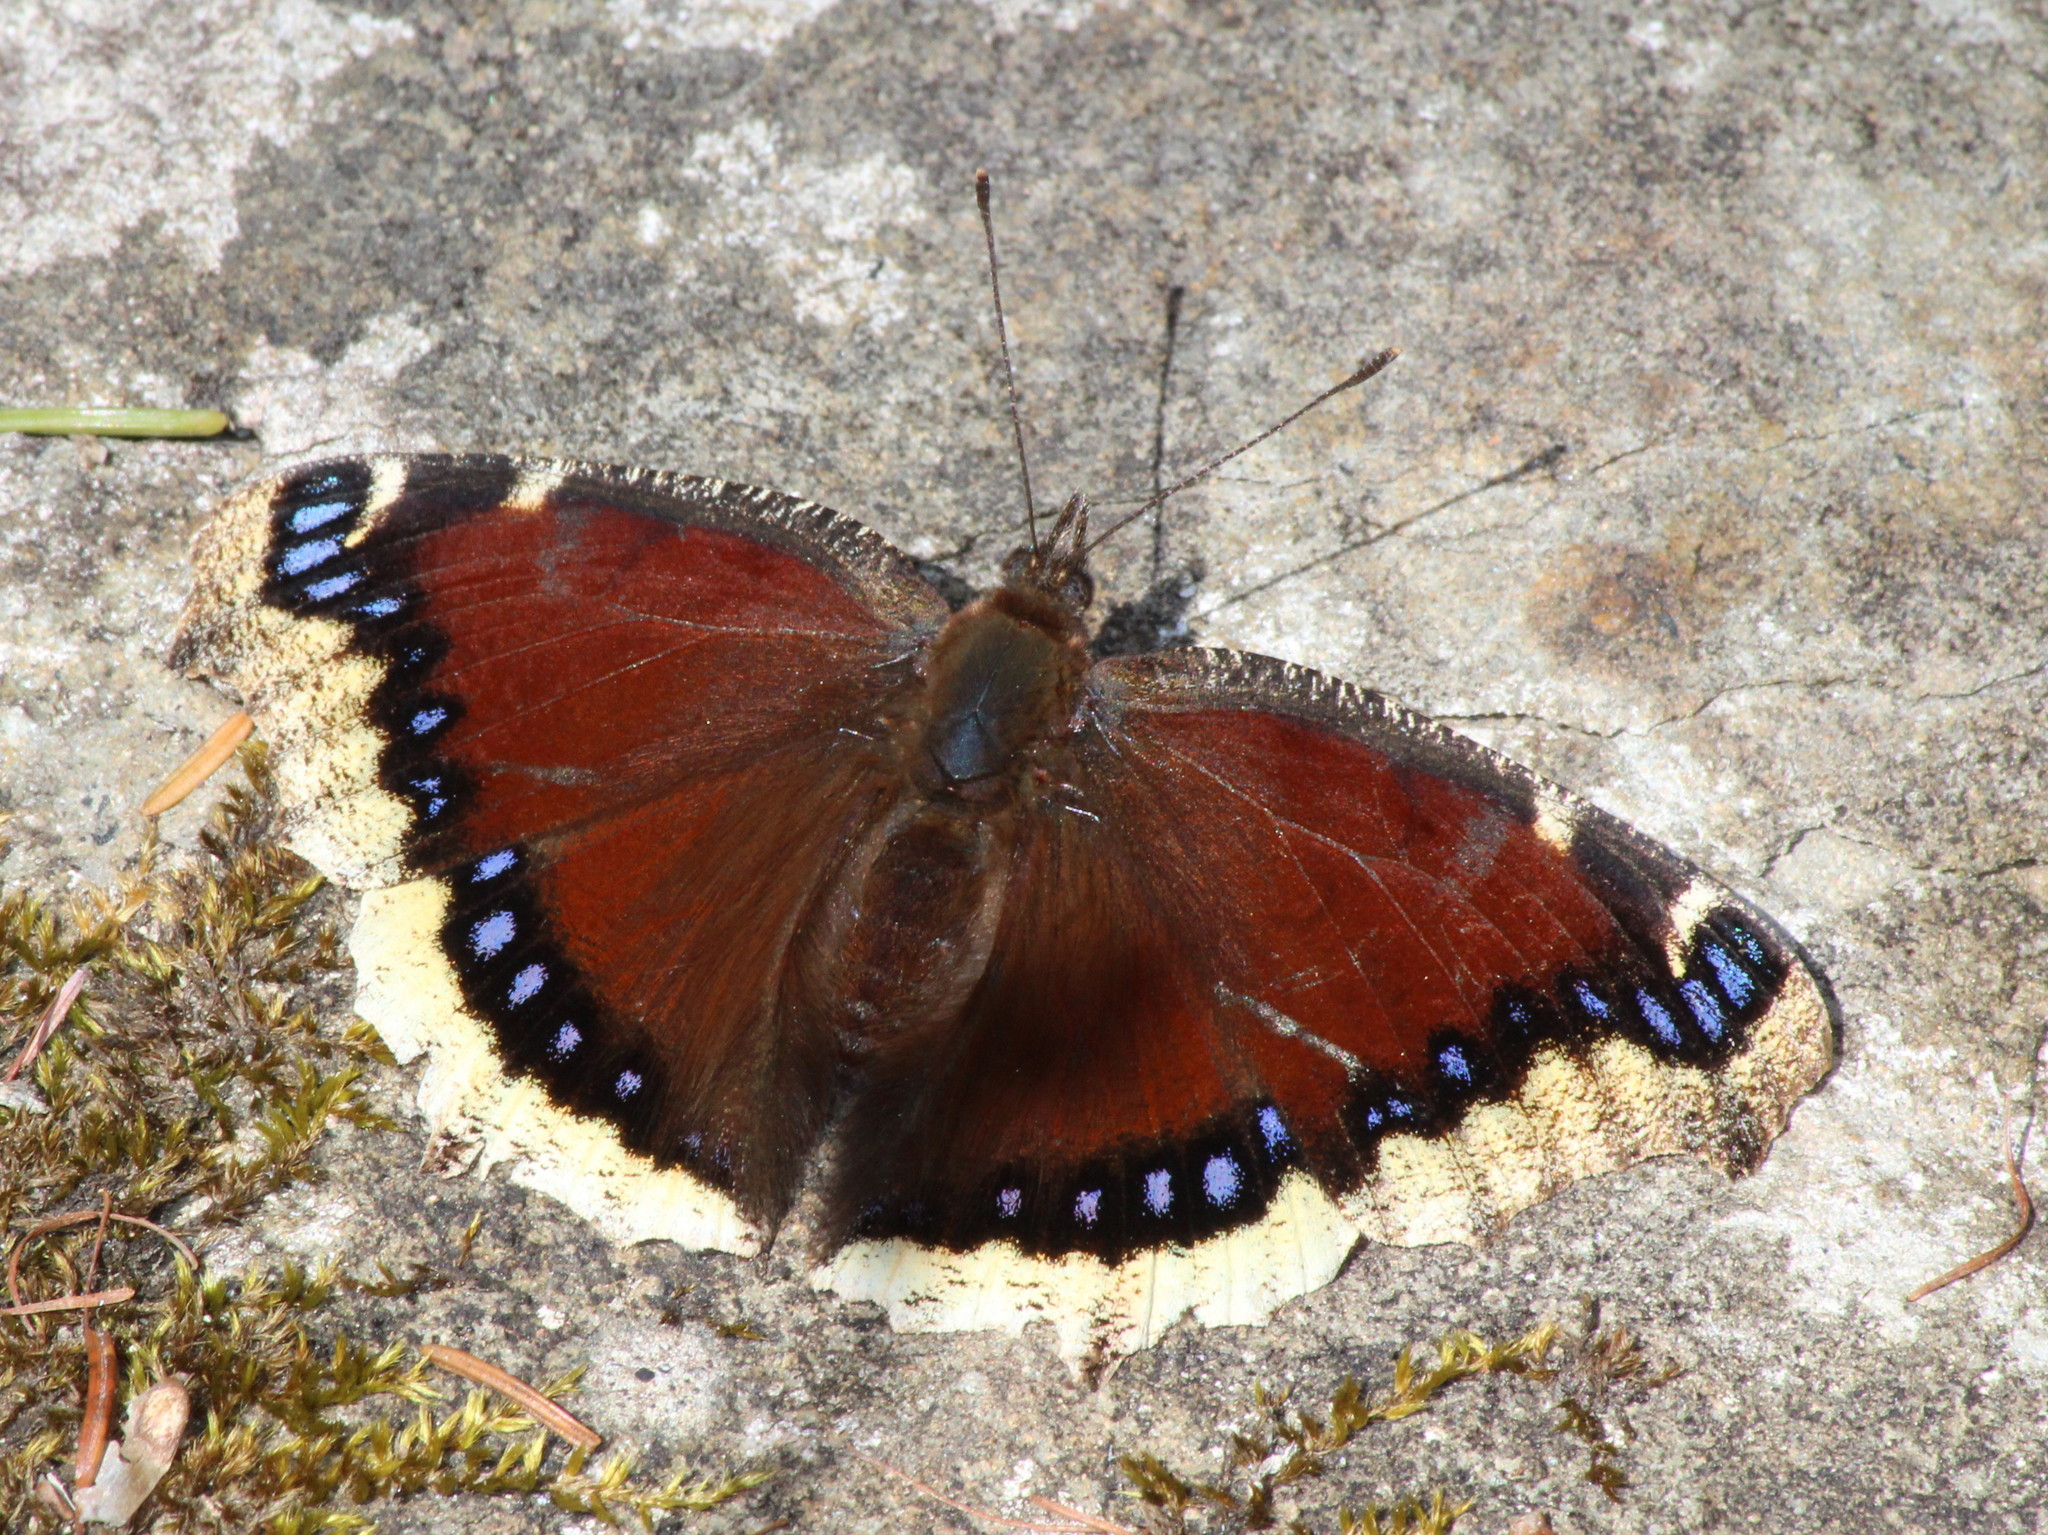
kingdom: Animalia
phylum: Arthropoda
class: Insecta
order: Lepidoptera
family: Nymphalidae
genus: Nymphalis
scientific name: Nymphalis antiopa
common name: Camberwell beauty
